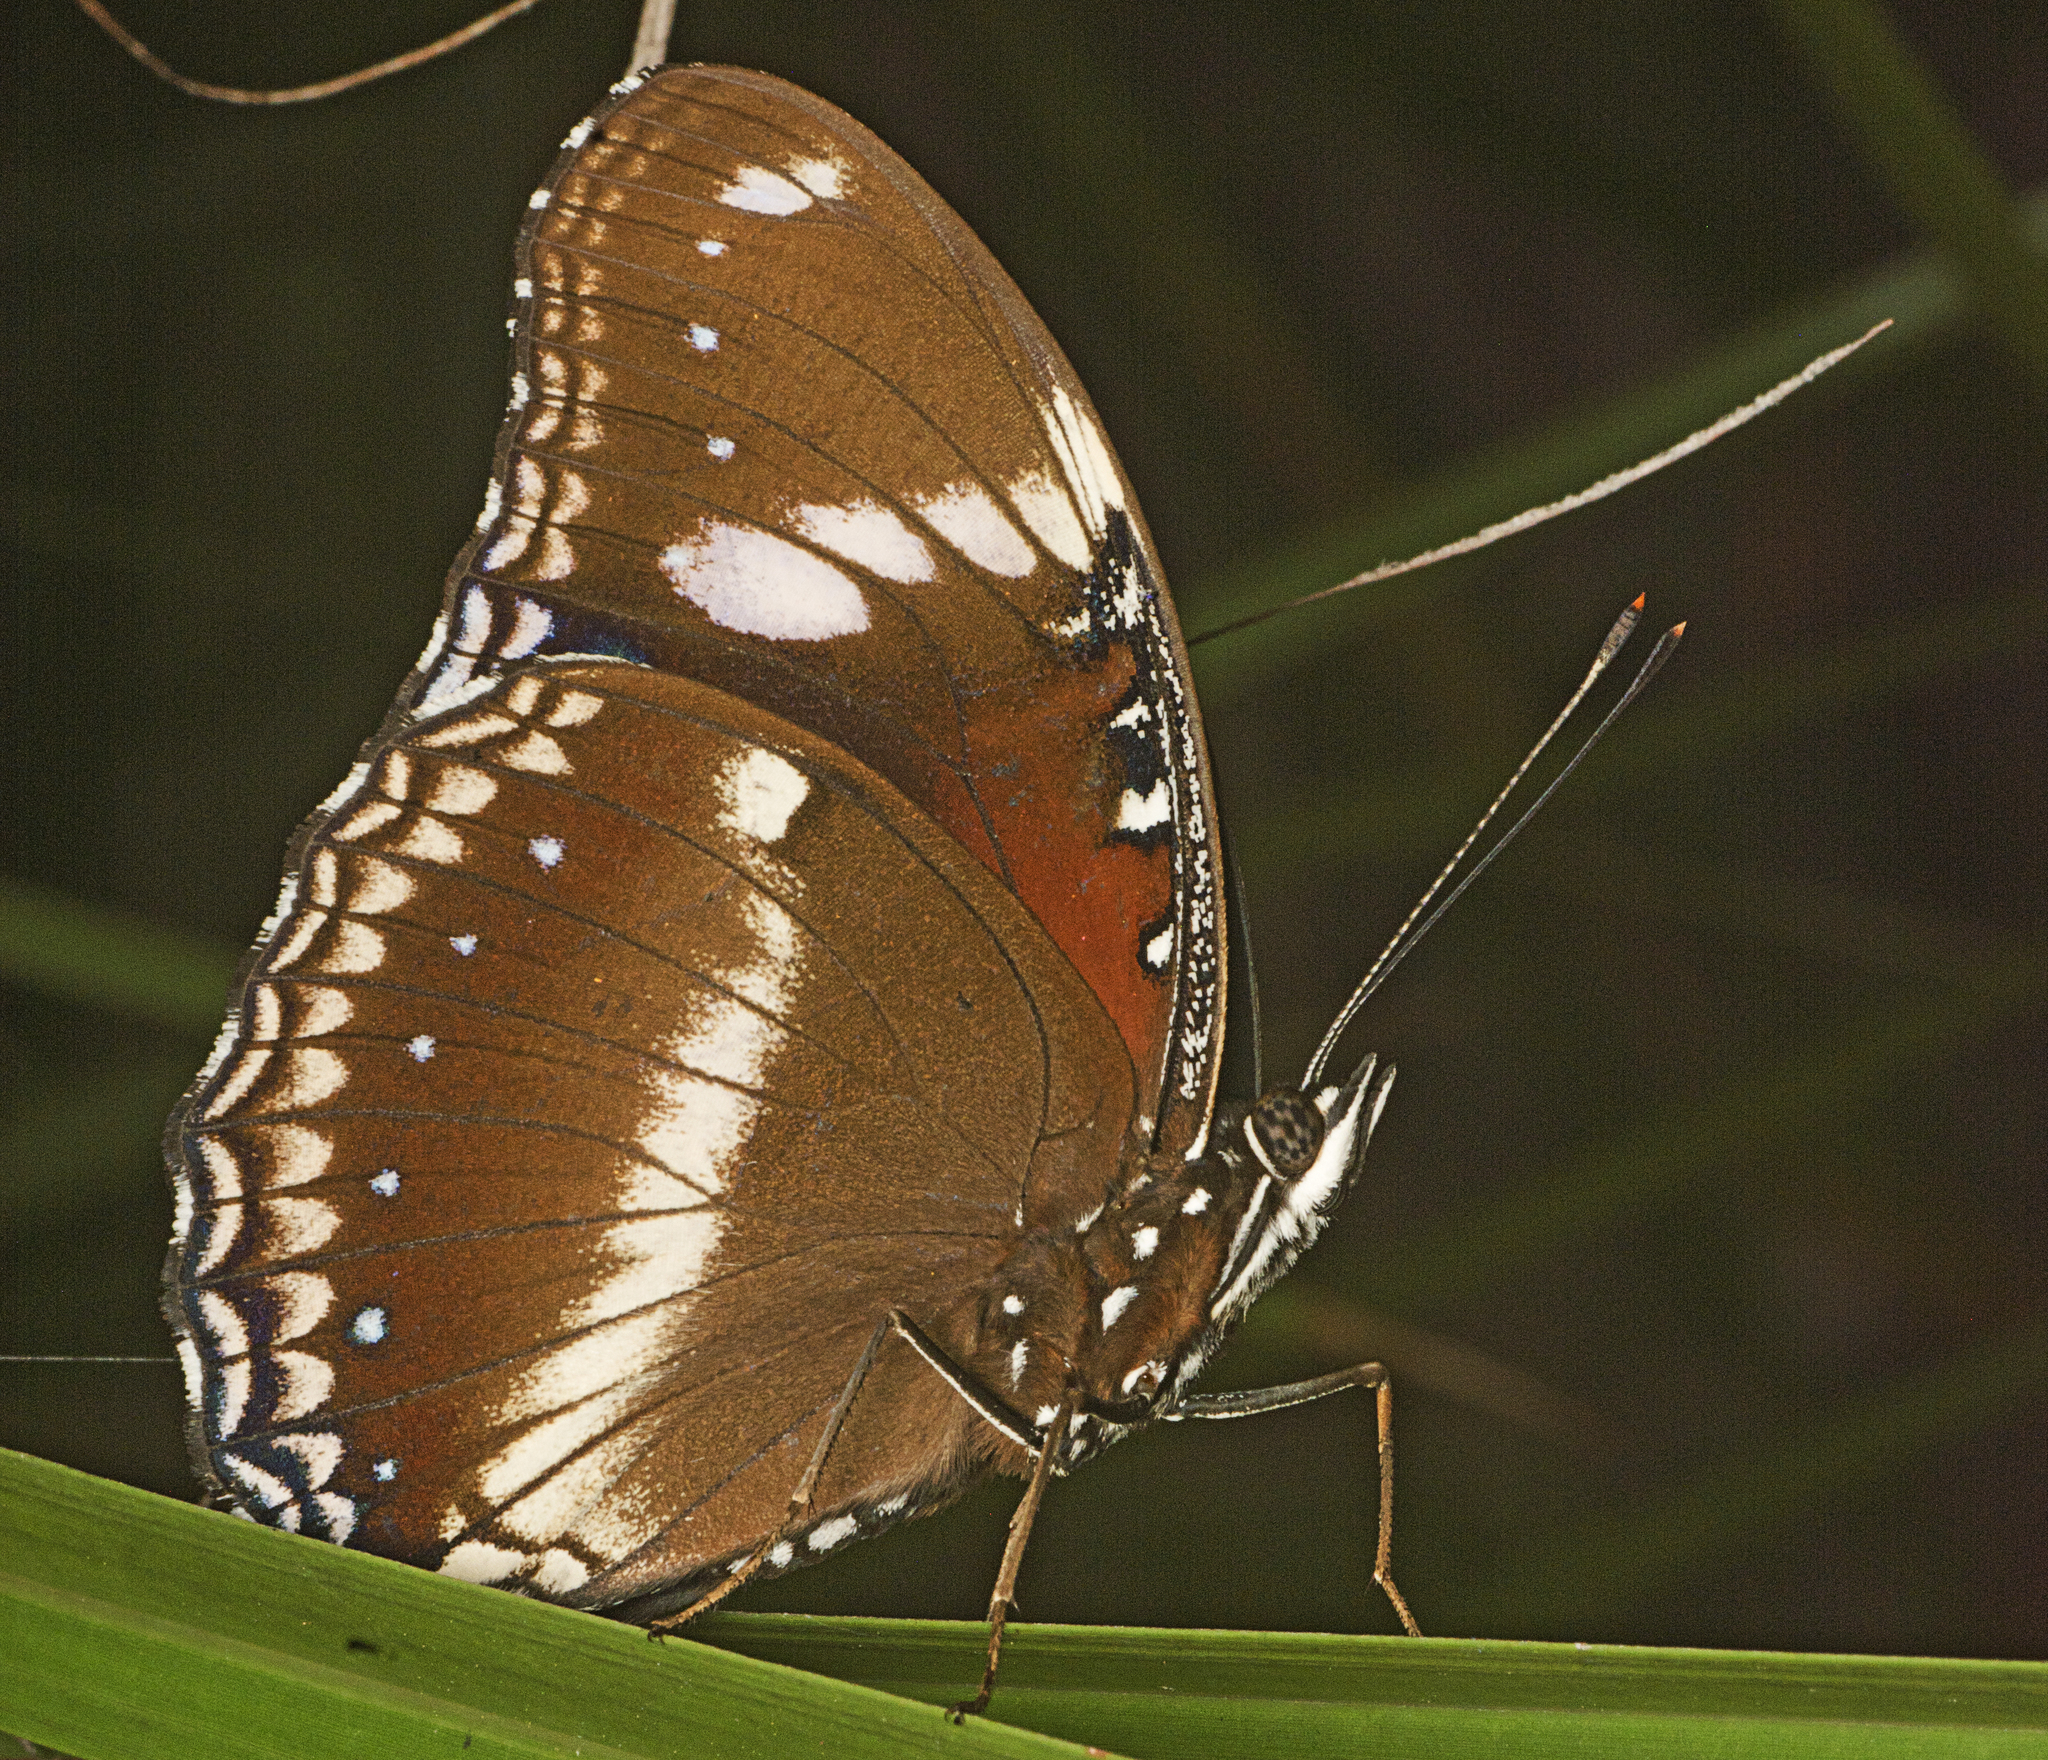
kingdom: Animalia
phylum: Arthropoda
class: Insecta
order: Lepidoptera
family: Nymphalidae
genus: Hypolimnas
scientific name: Hypolimnas bolina
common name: Great eggfly
